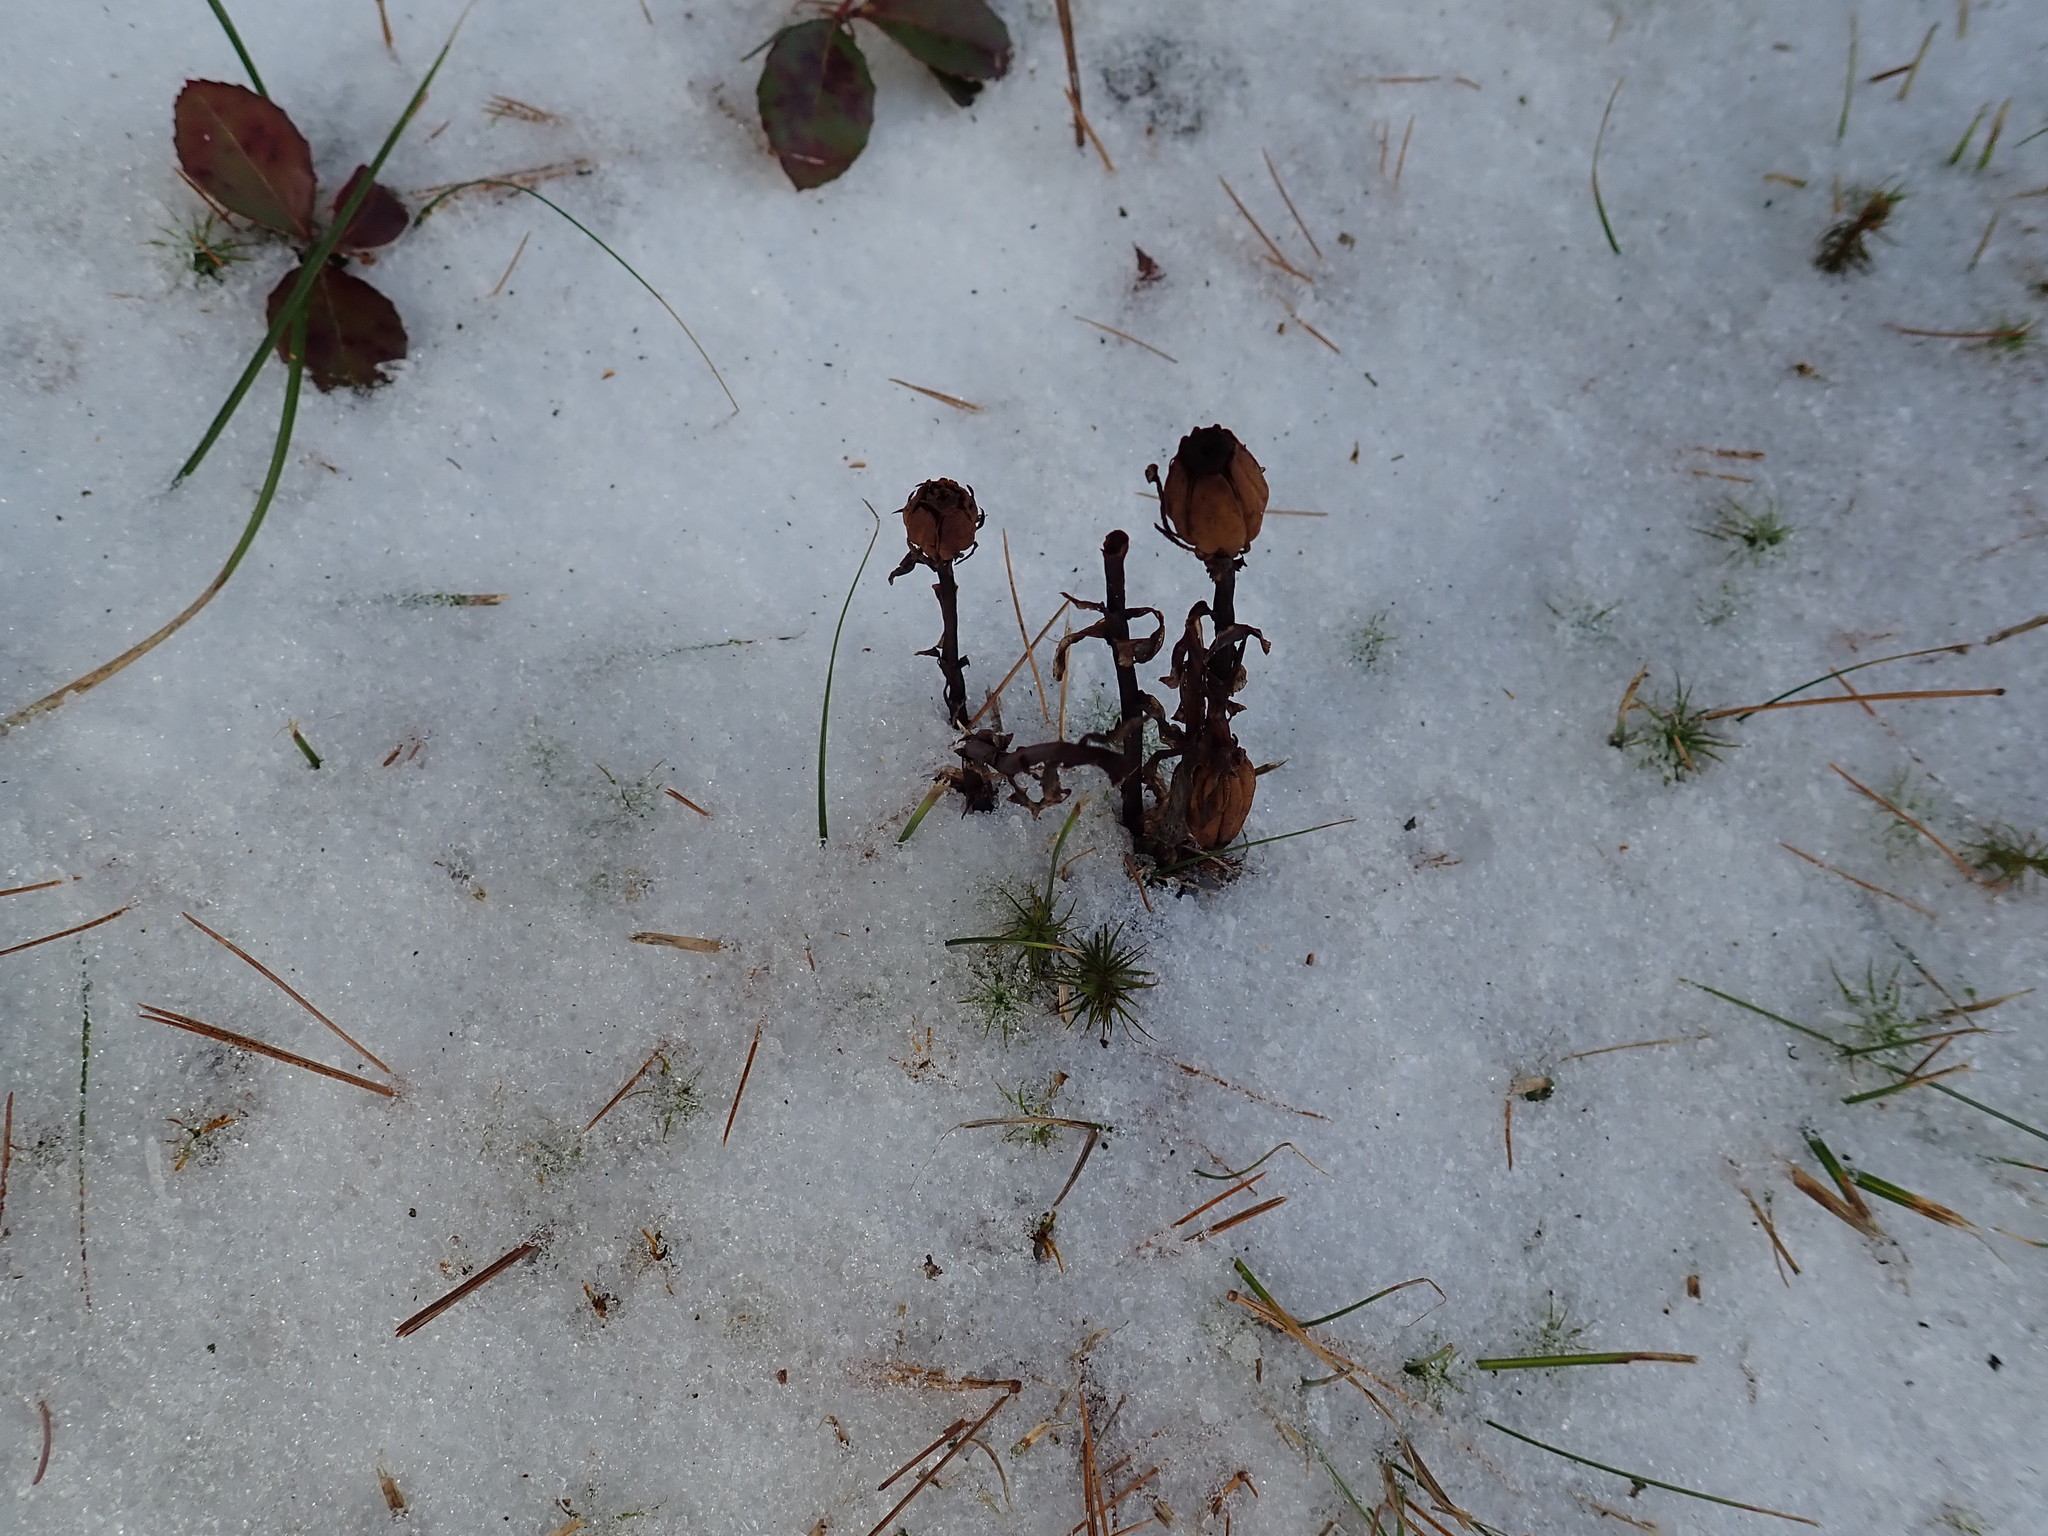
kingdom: Plantae
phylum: Tracheophyta
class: Magnoliopsida
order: Ericales
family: Ericaceae
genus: Monotropa
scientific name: Monotropa uniflora
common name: Convulsion root
